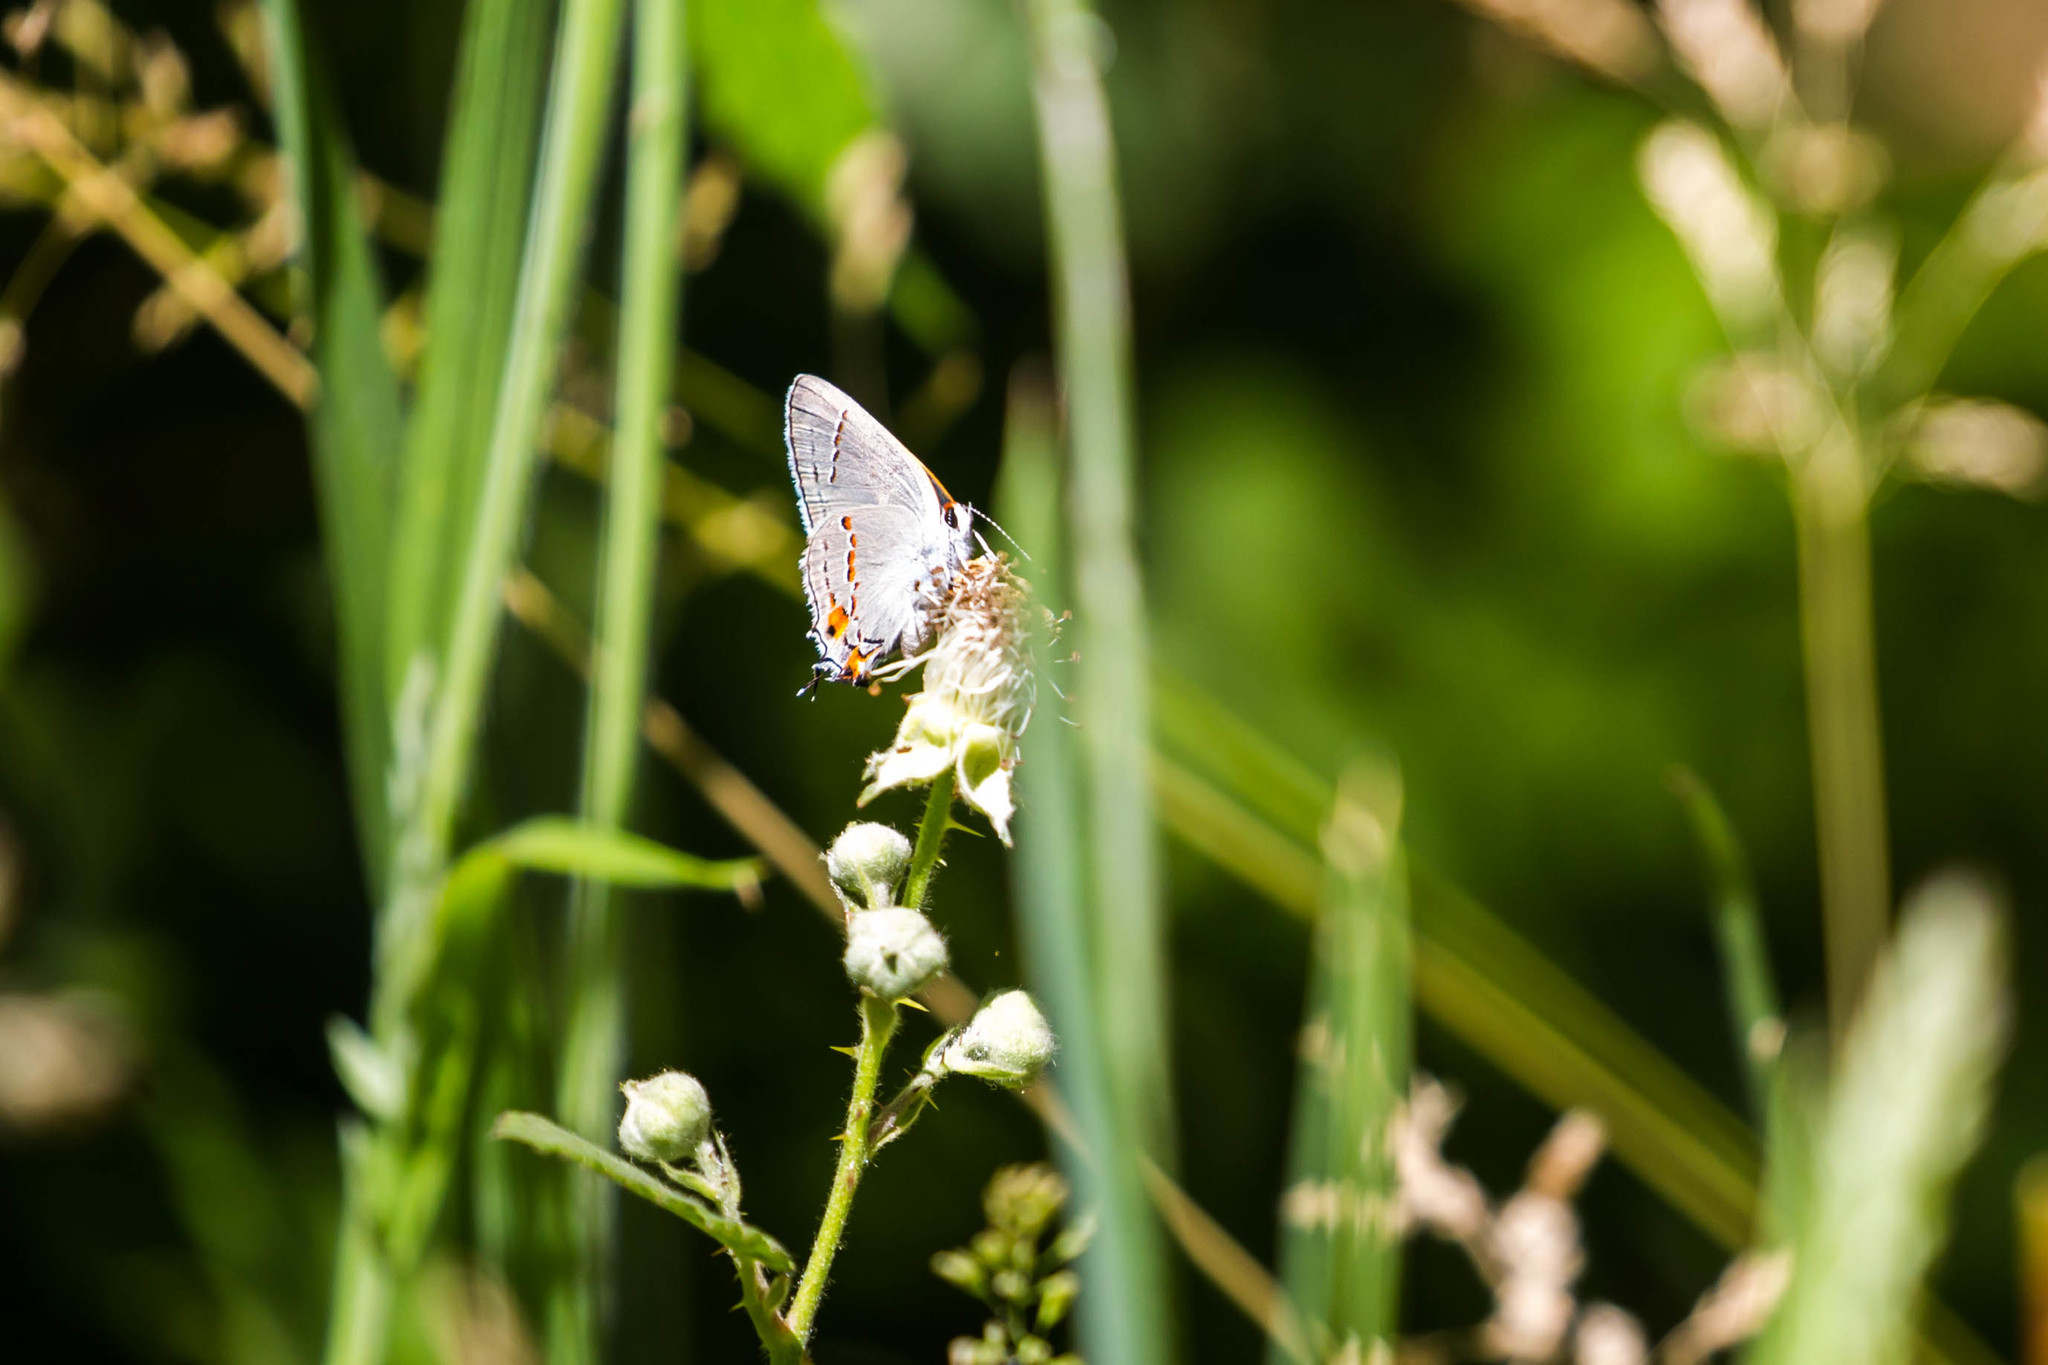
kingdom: Animalia
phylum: Arthropoda
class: Insecta
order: Lepidoptera
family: Lycaenidae
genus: Strymon
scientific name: Strymon melinus
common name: Gray hairstreak
